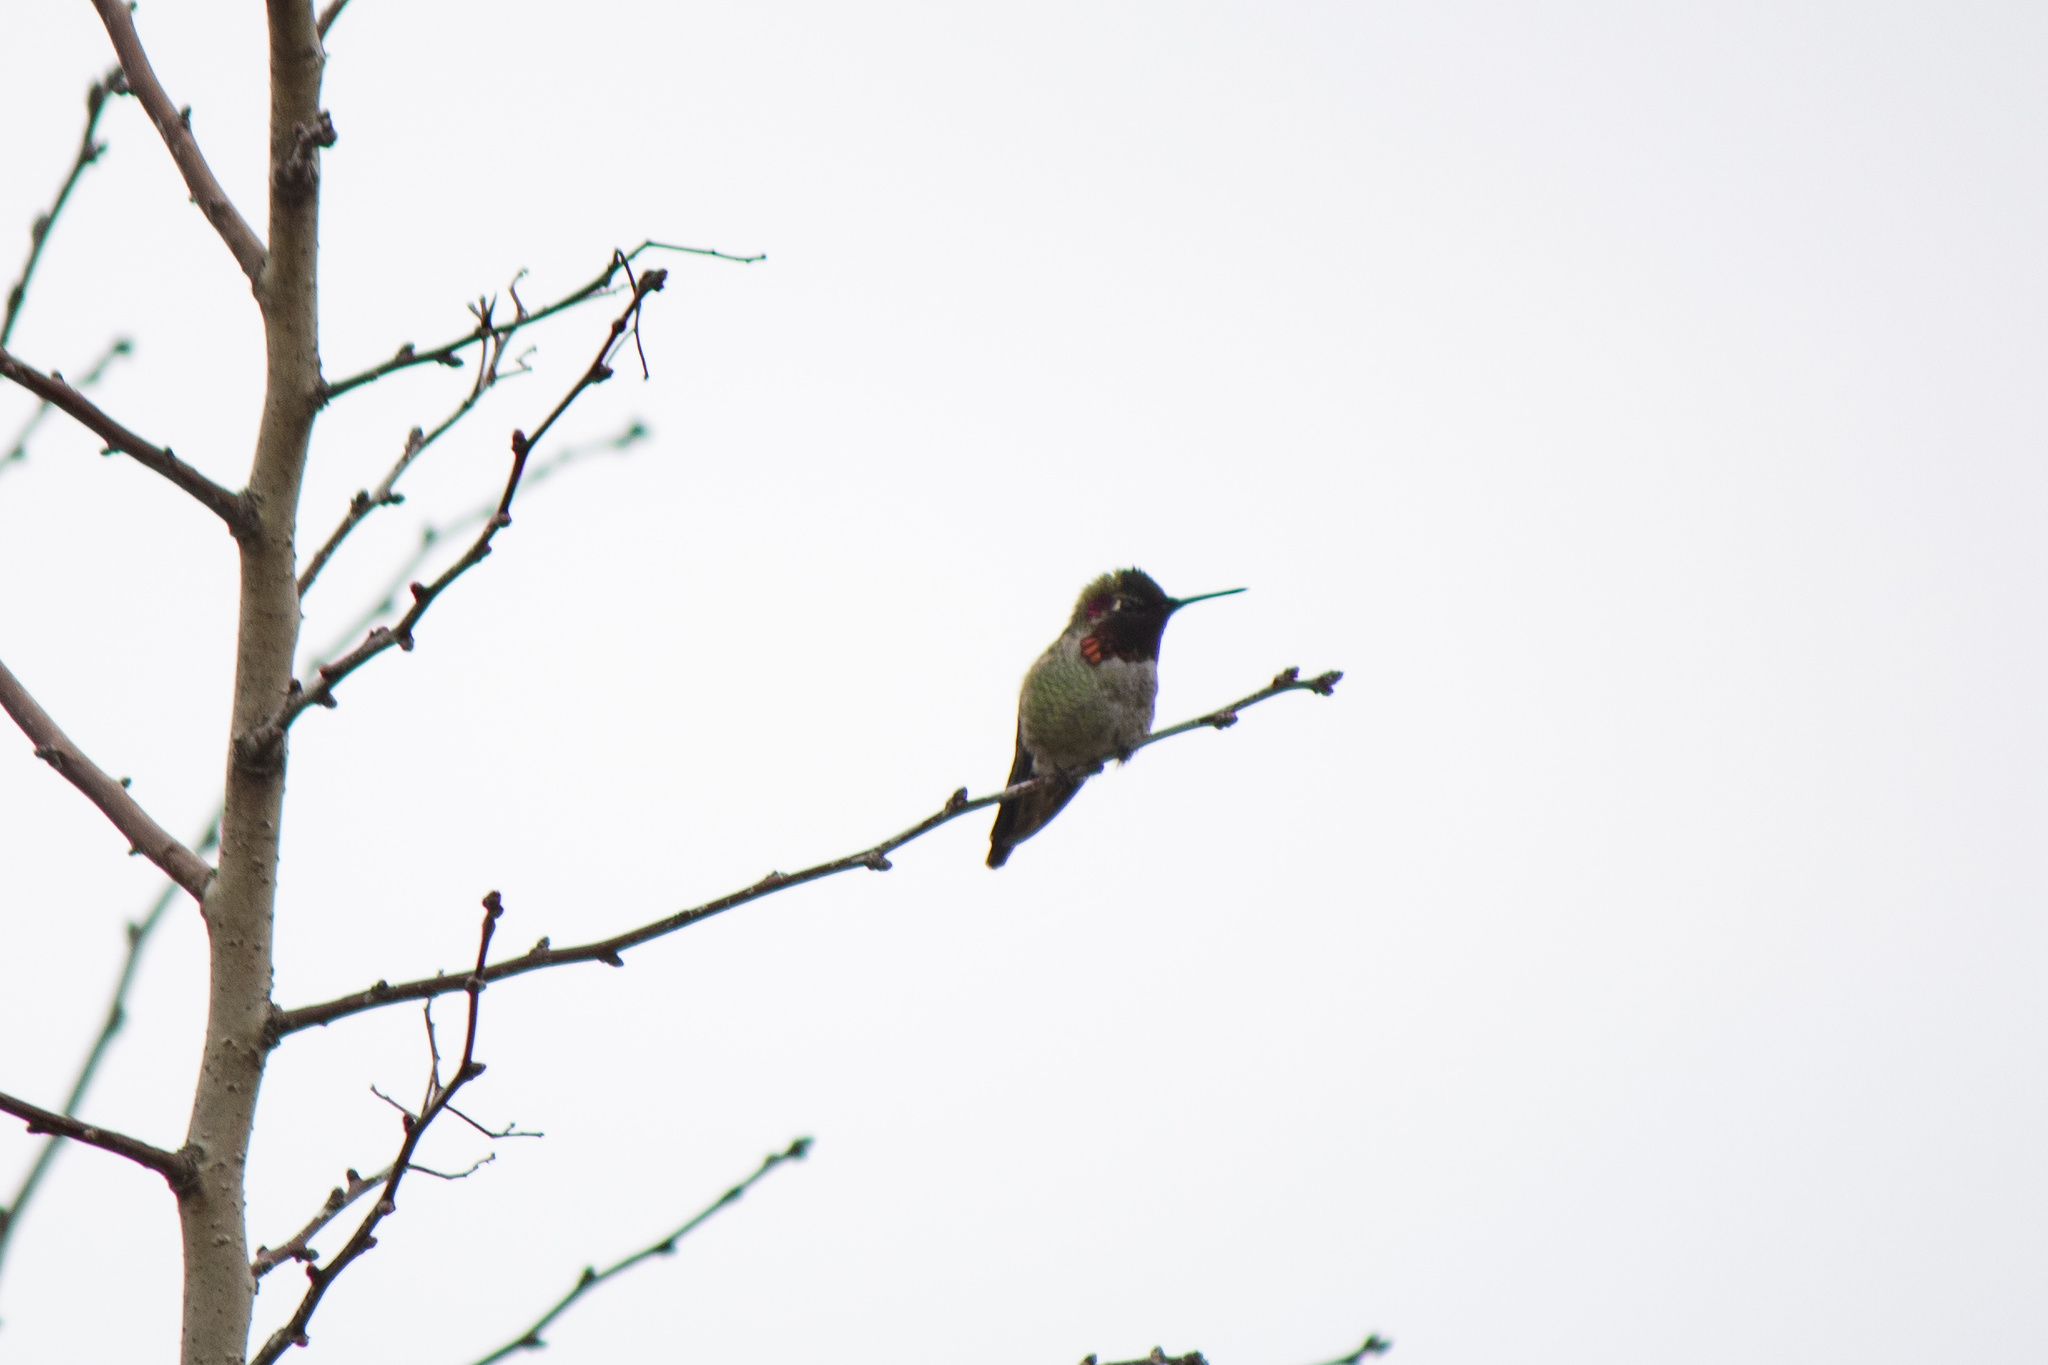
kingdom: Animalia
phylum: Chordata
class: Aves
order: Apodiformes
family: Trochilidae
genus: Calypte
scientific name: Calypte anna
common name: Anna's hummingbird
